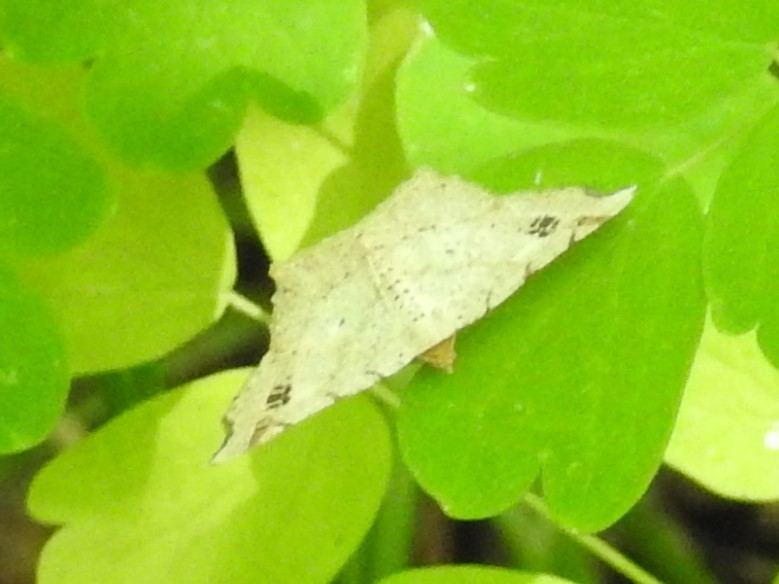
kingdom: Animalia
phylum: Arthropoda
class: Insecta
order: Lepidoptera
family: Geometridae
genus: Macaria
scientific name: Macaria aemulataria
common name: Common angle
